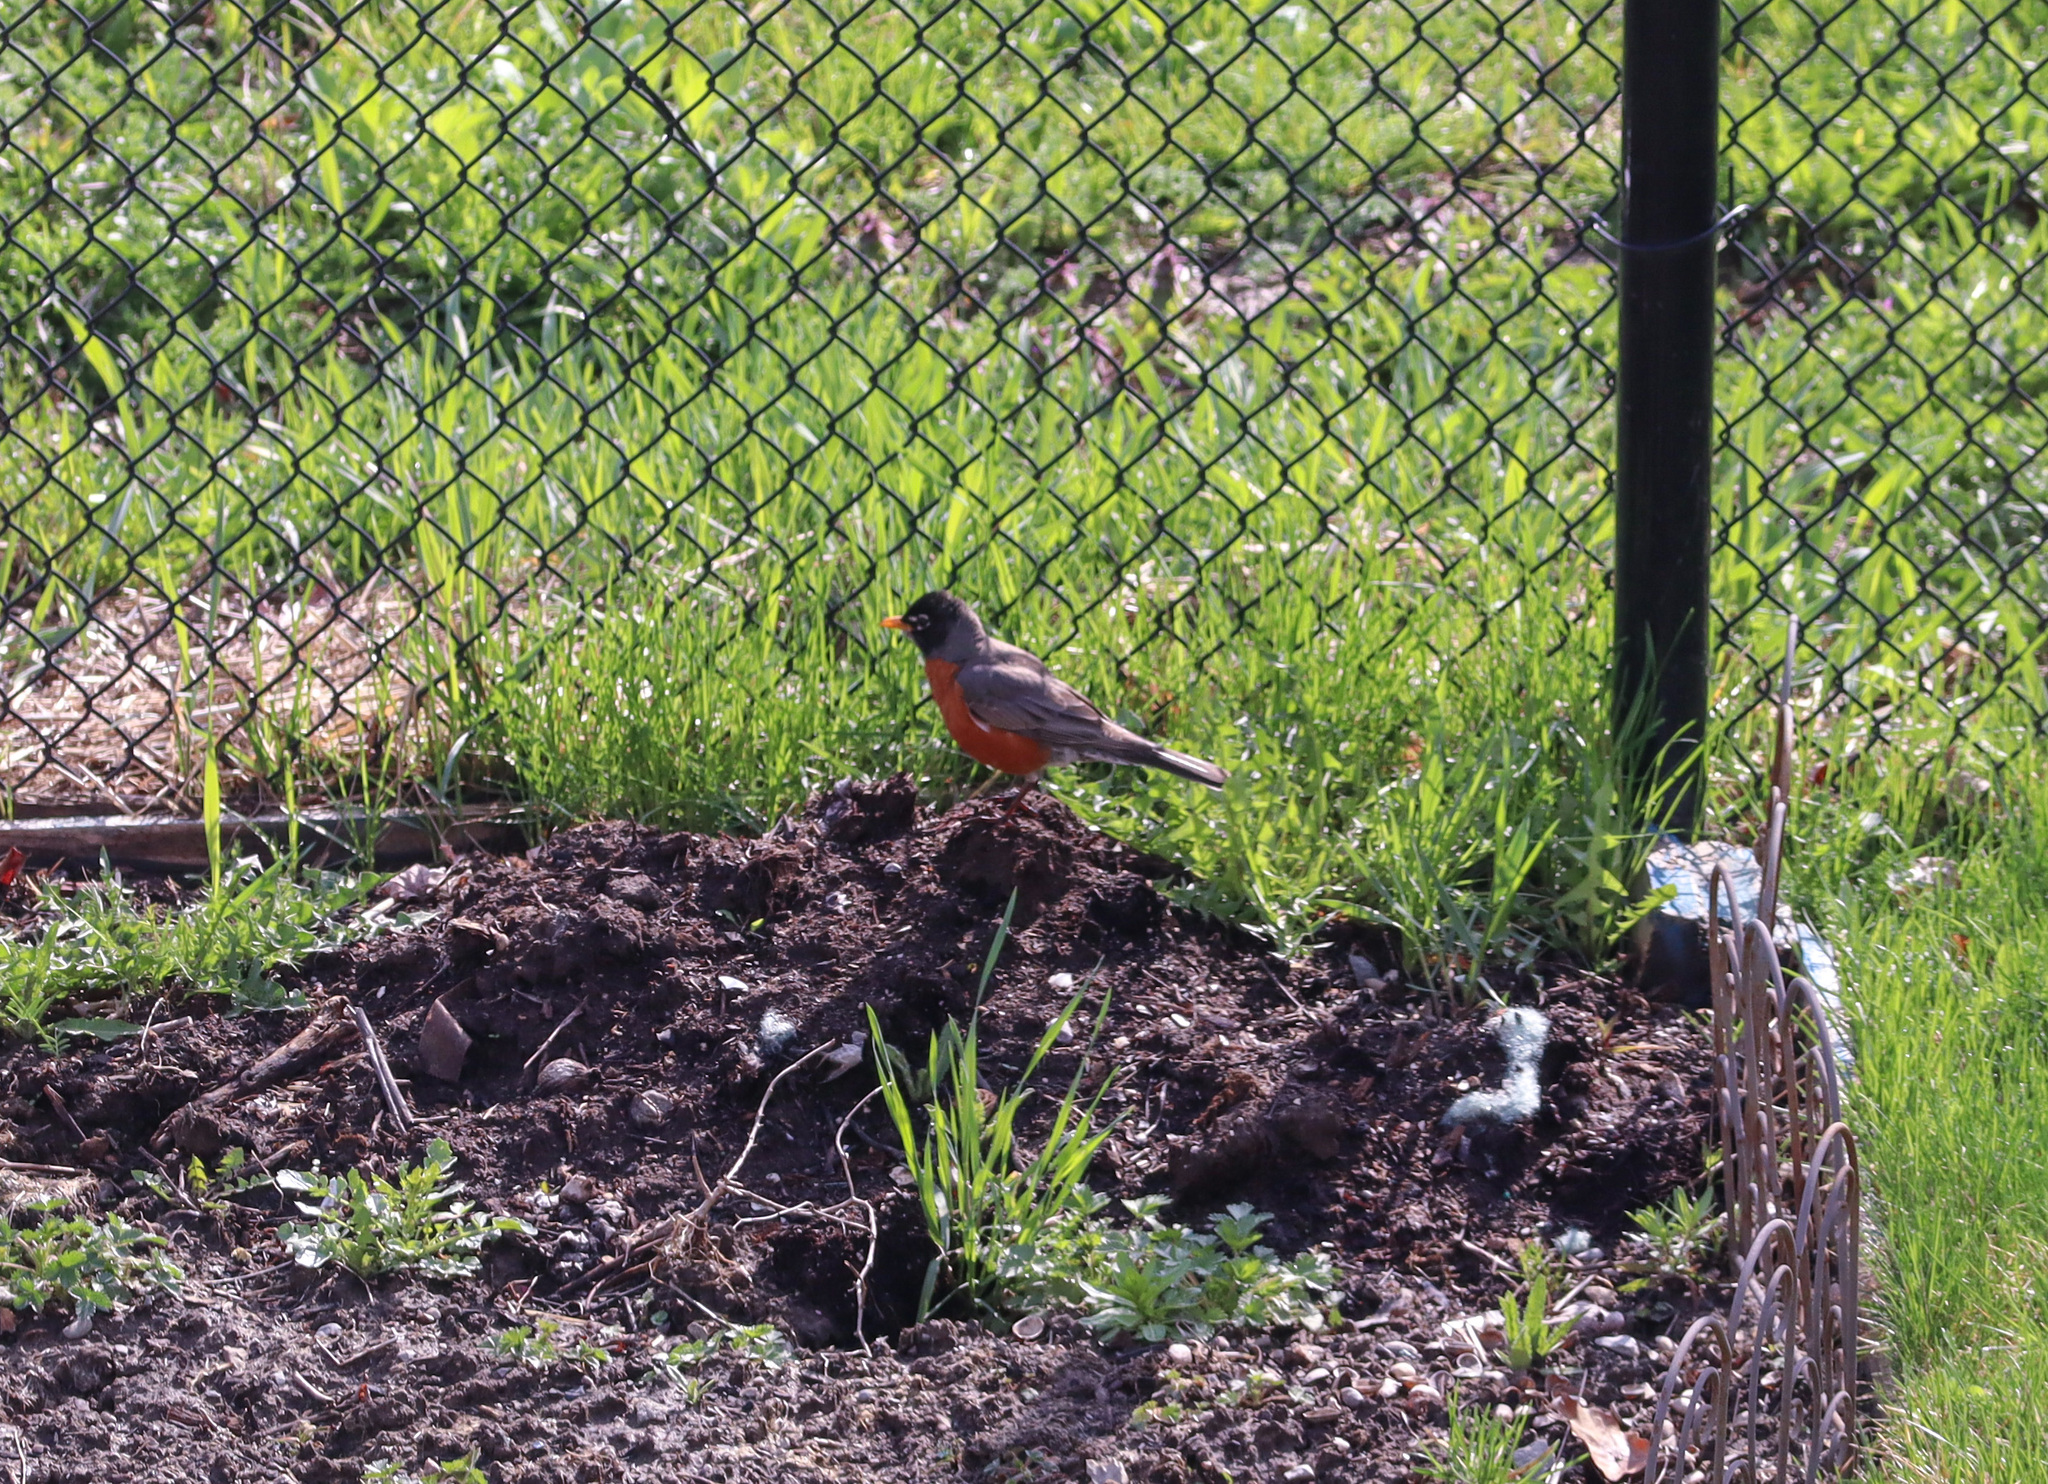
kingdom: Animalia
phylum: Chordata
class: Aves
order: Passeriformes
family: Turdidae
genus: Turdus
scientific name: Turdus migratorius
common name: American robin
